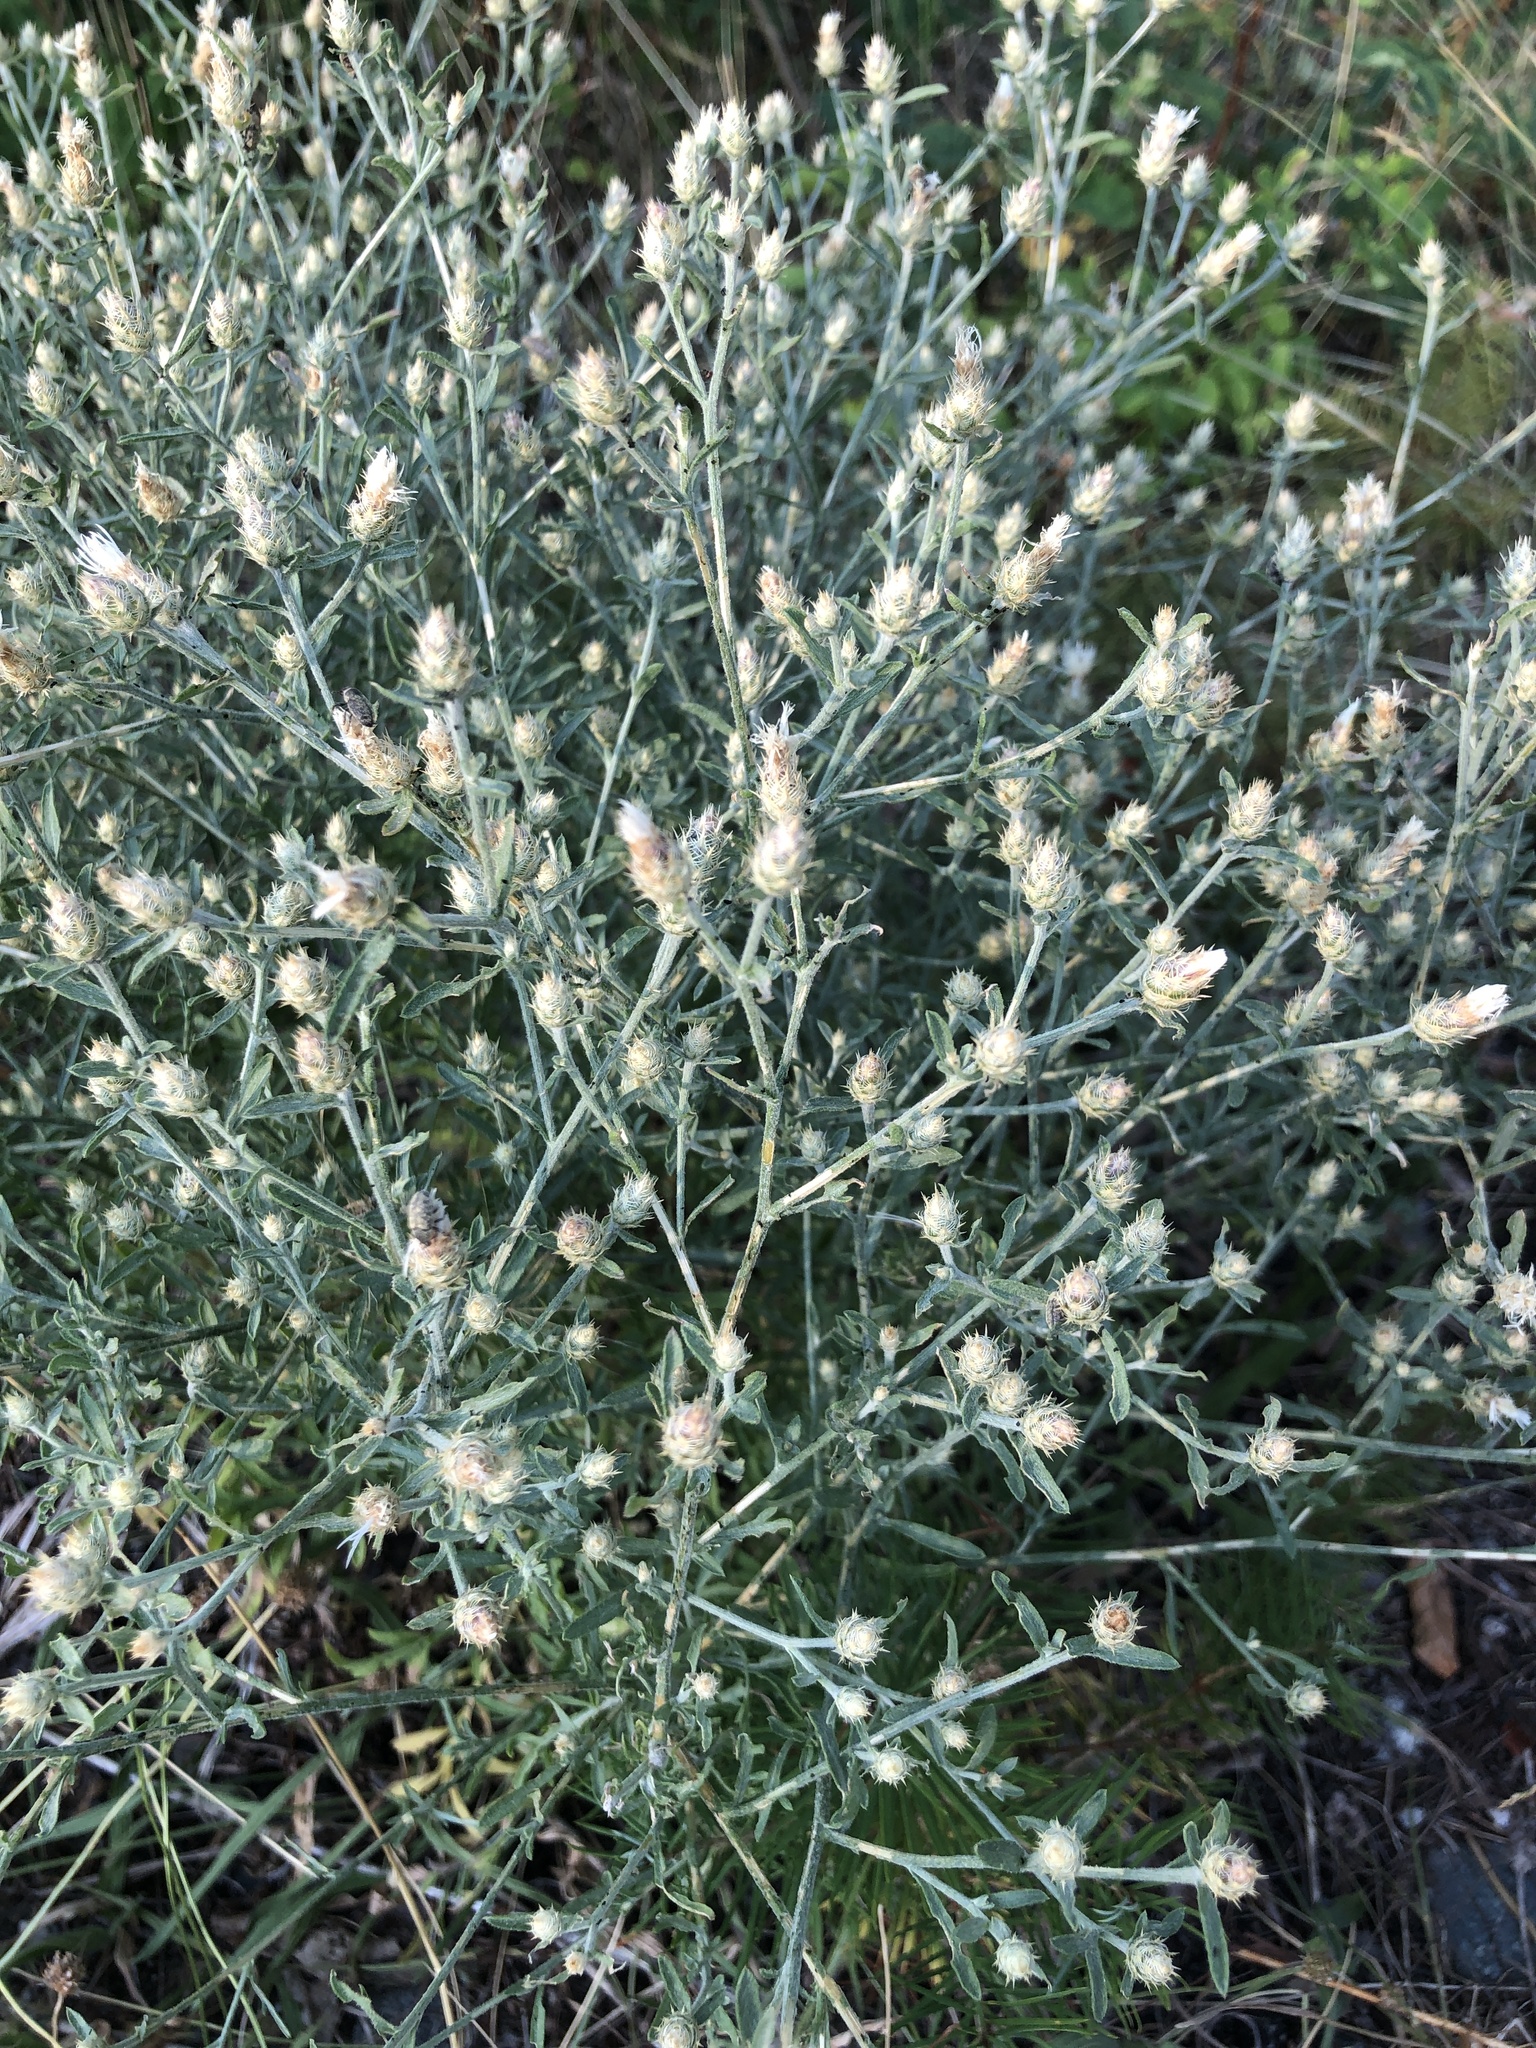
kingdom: Plantae
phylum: Tracheophyta
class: Magnoliopsida
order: Asterales
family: Asteraceae
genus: Centaurea
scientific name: Centaurea diffusa
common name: Diffuse knapweed
